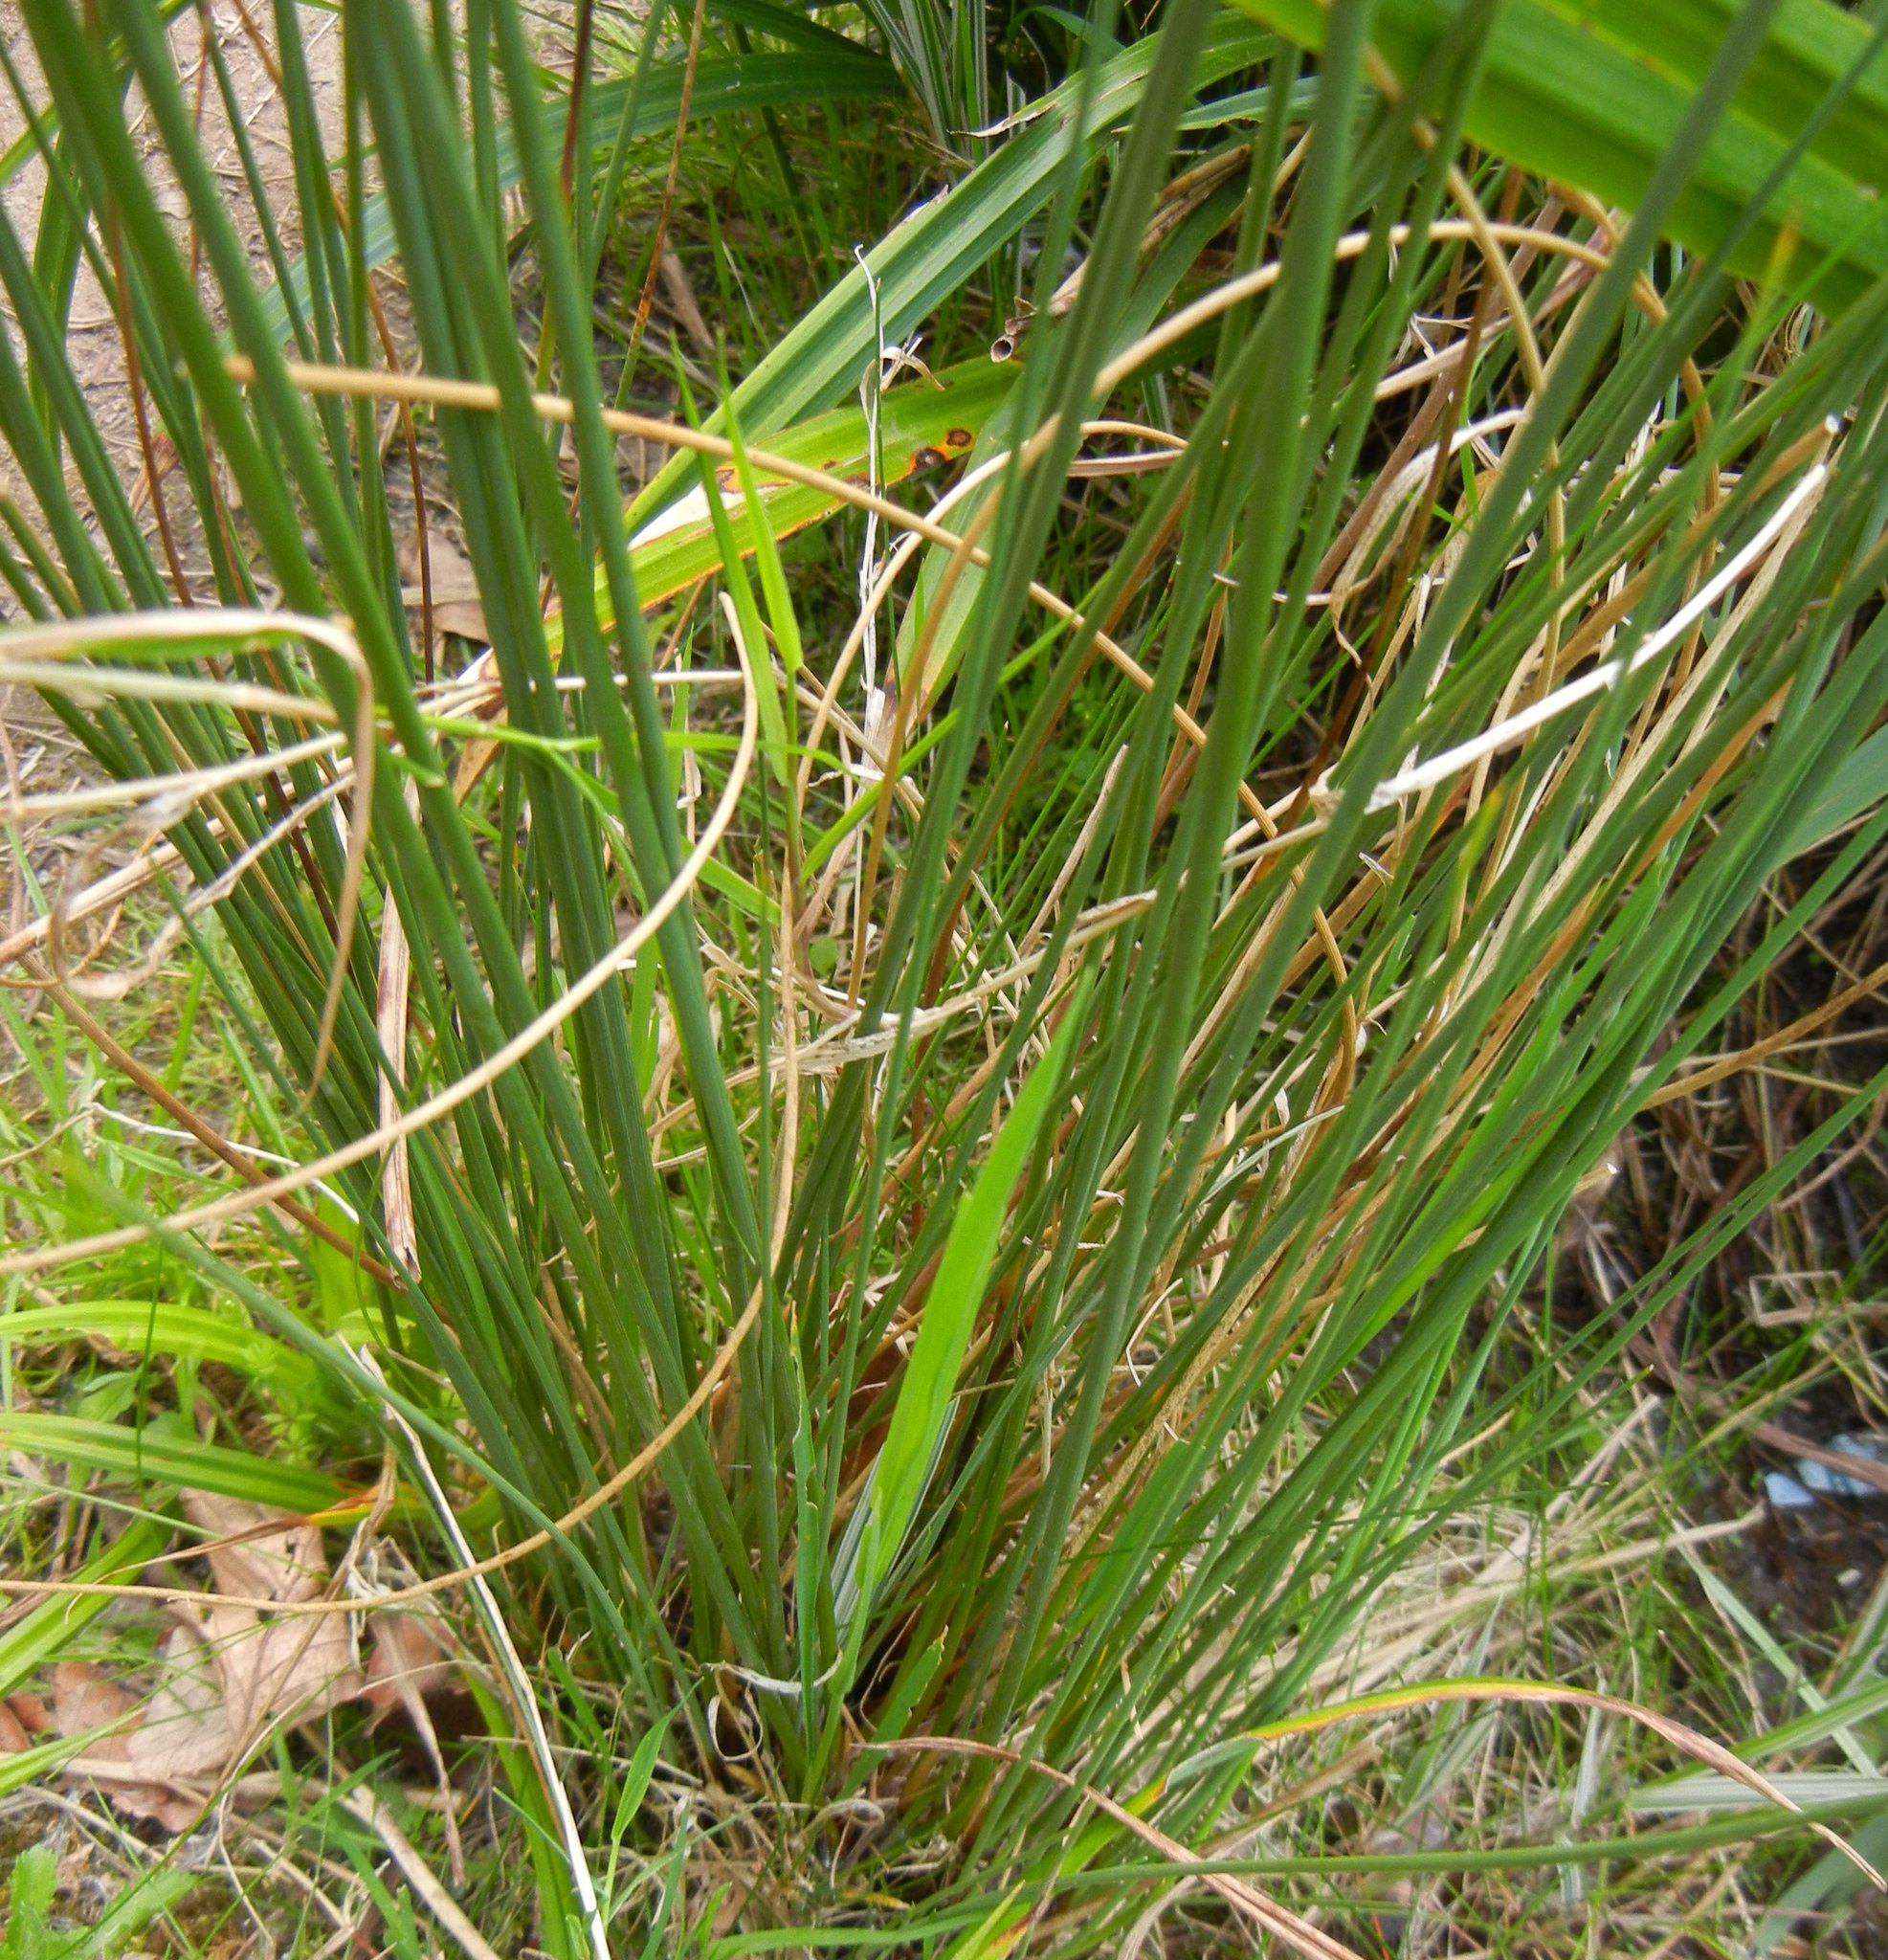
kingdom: Plantae
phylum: Tracheophyta
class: Liliopsida
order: Poales
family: Juncaceae
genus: Juncus
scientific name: Juncus inflexus
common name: Hard rush
